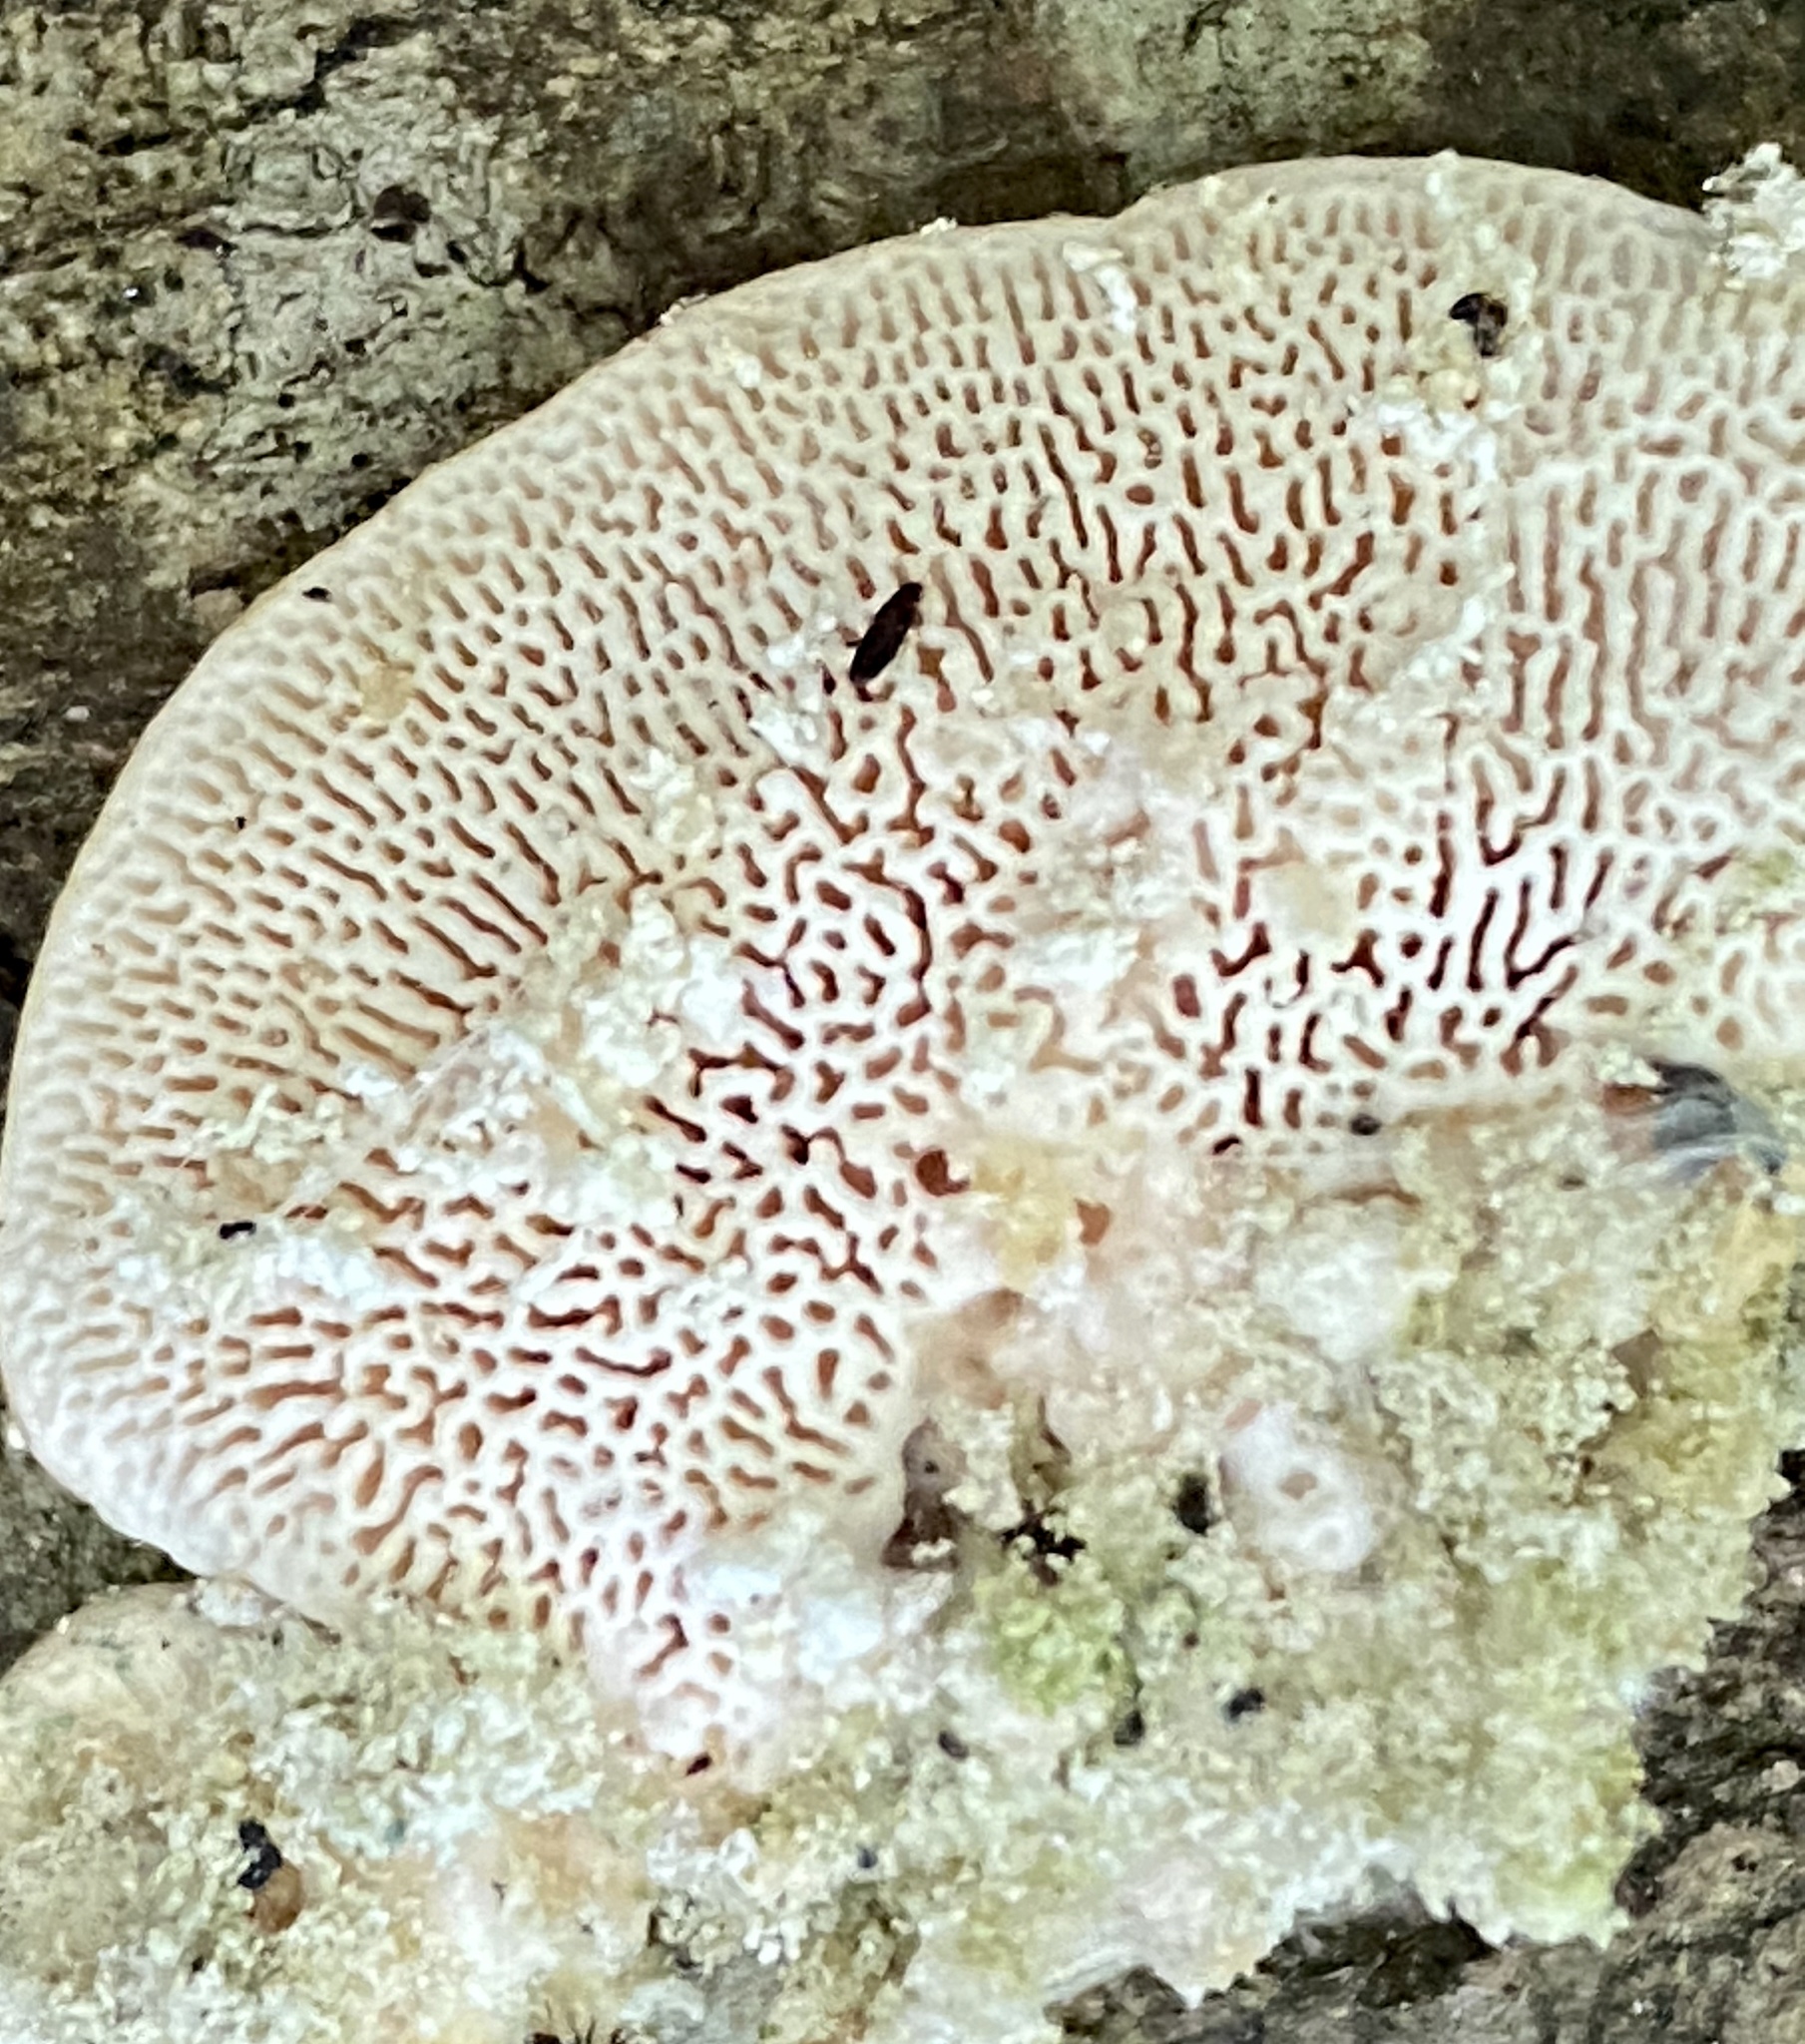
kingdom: Fungi
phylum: Basidiomycota
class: Agaricomycetes
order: Polyporales
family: Polyporaceae
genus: Trametes
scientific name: Trametes gibbosa
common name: Lumpy bracket
